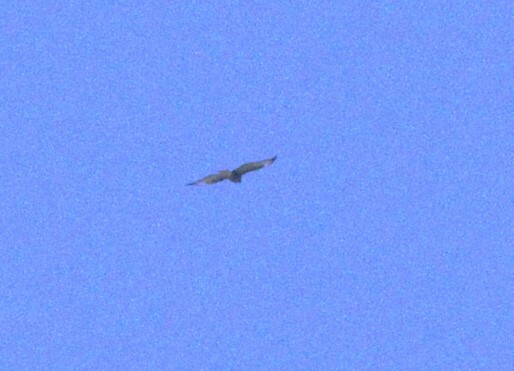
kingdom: Animalia
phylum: Chordata
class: Aves
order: Accipitriformes
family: Accipitridae
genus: Buteo
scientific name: Buteo buteo
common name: Common buzzard
